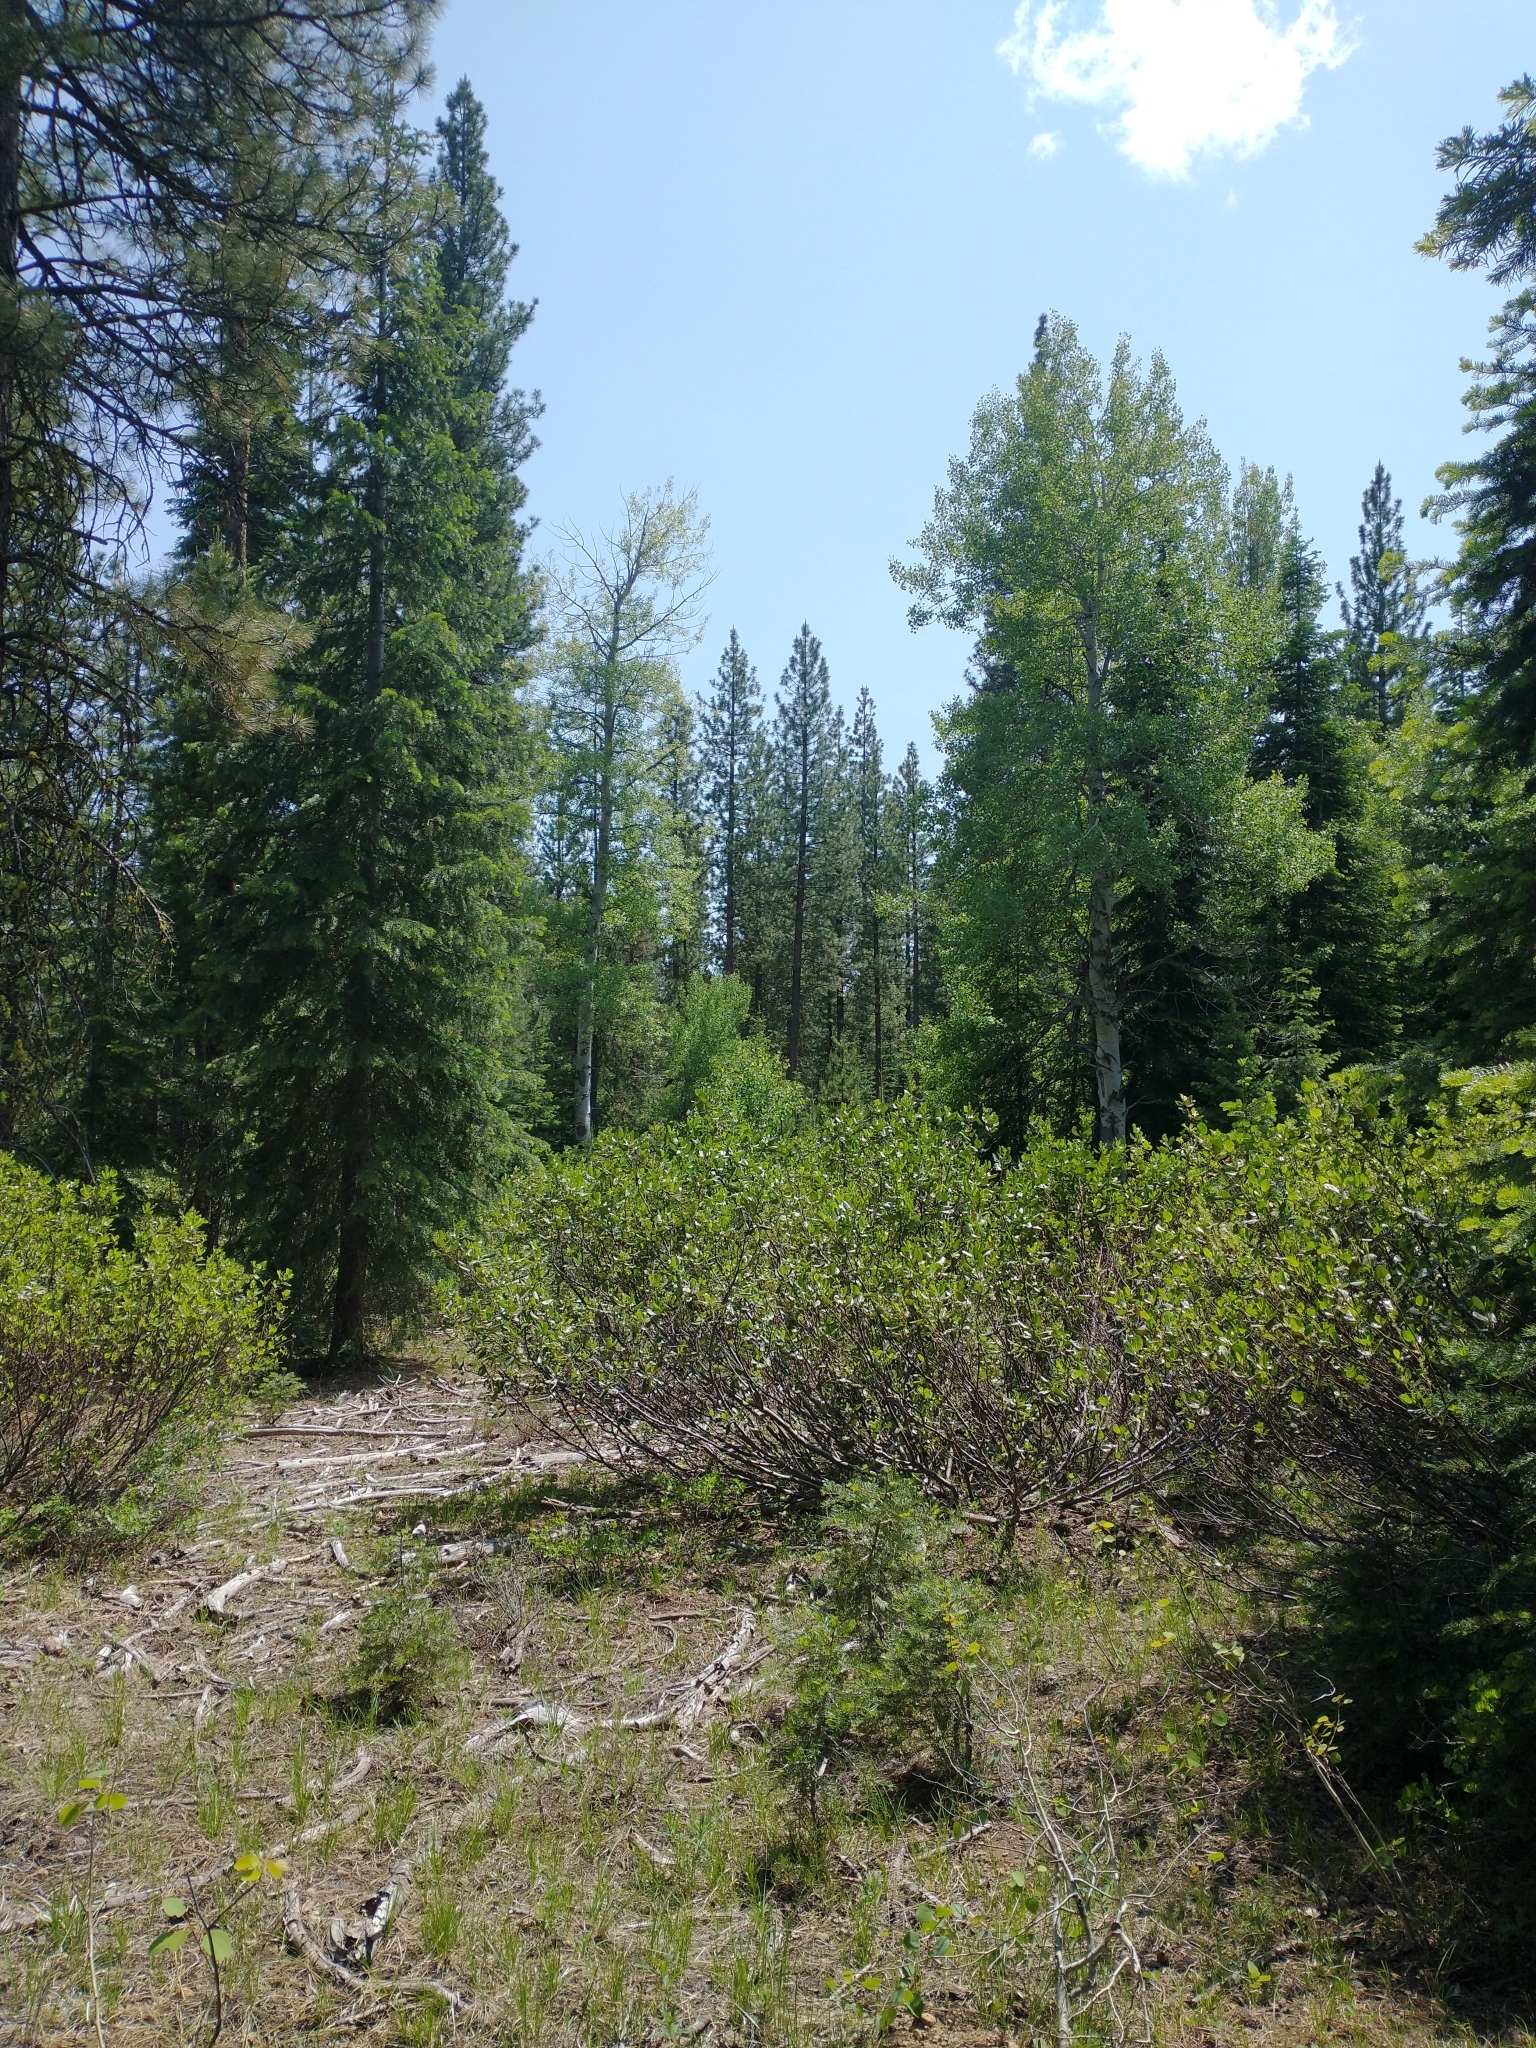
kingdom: Plantae
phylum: Tracheophyta
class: Magnoliopsida
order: Malpighiales
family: Salicaceae
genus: Populus
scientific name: Populus tremuloides
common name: Quaking aspen
